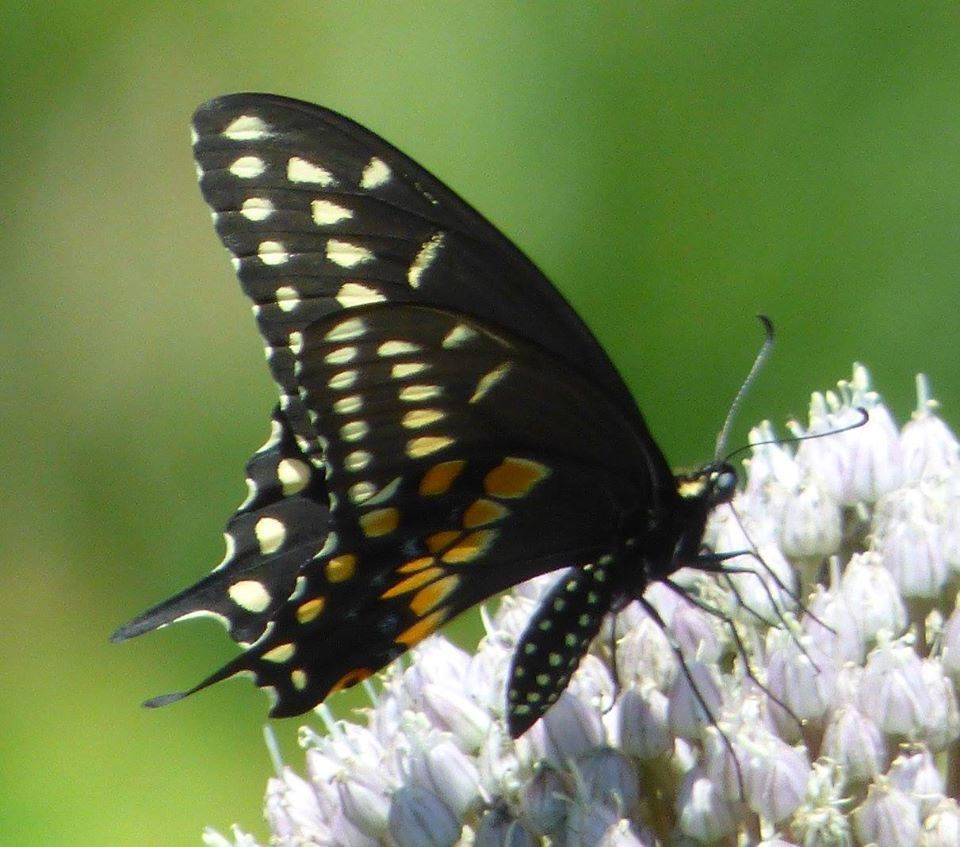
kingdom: Animalia
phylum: Arthropoda
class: Insecta
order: Lepidoptera
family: Papilionidae
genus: Papilio
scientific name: Papilio polyxenes
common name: Black swallowtail
